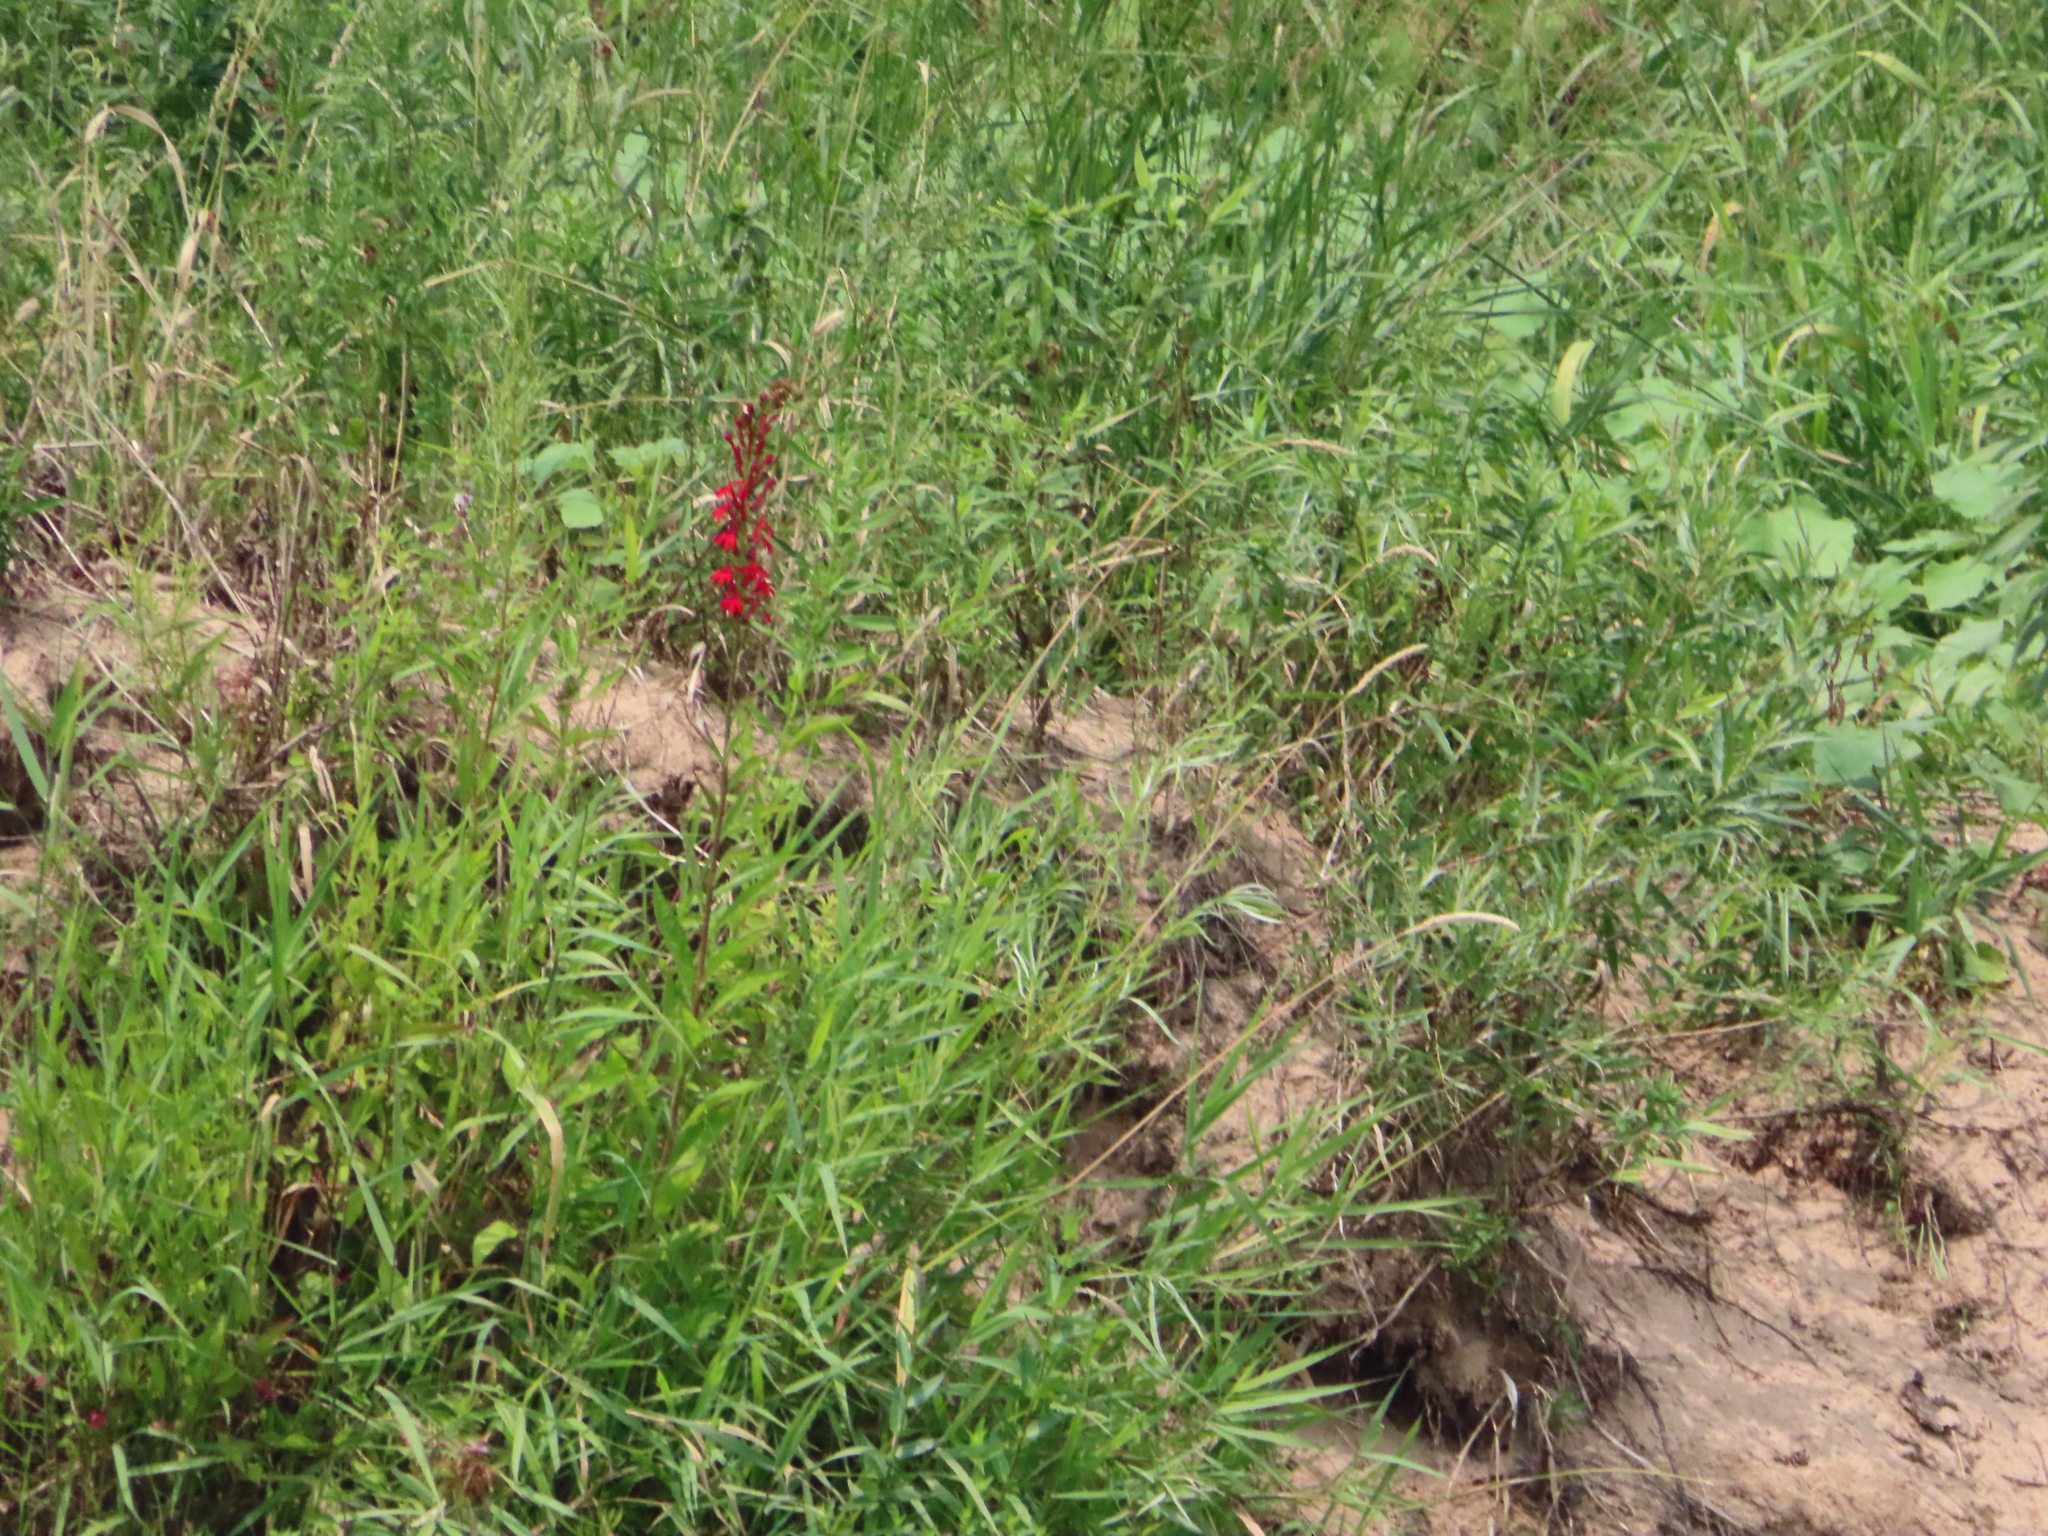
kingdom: Plantae
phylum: Tracheophyta
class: Magnoliopsida
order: Asterales
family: Campanulaceae
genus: Lobelia
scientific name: Lobelia cardinalis
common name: Cardinal flower
